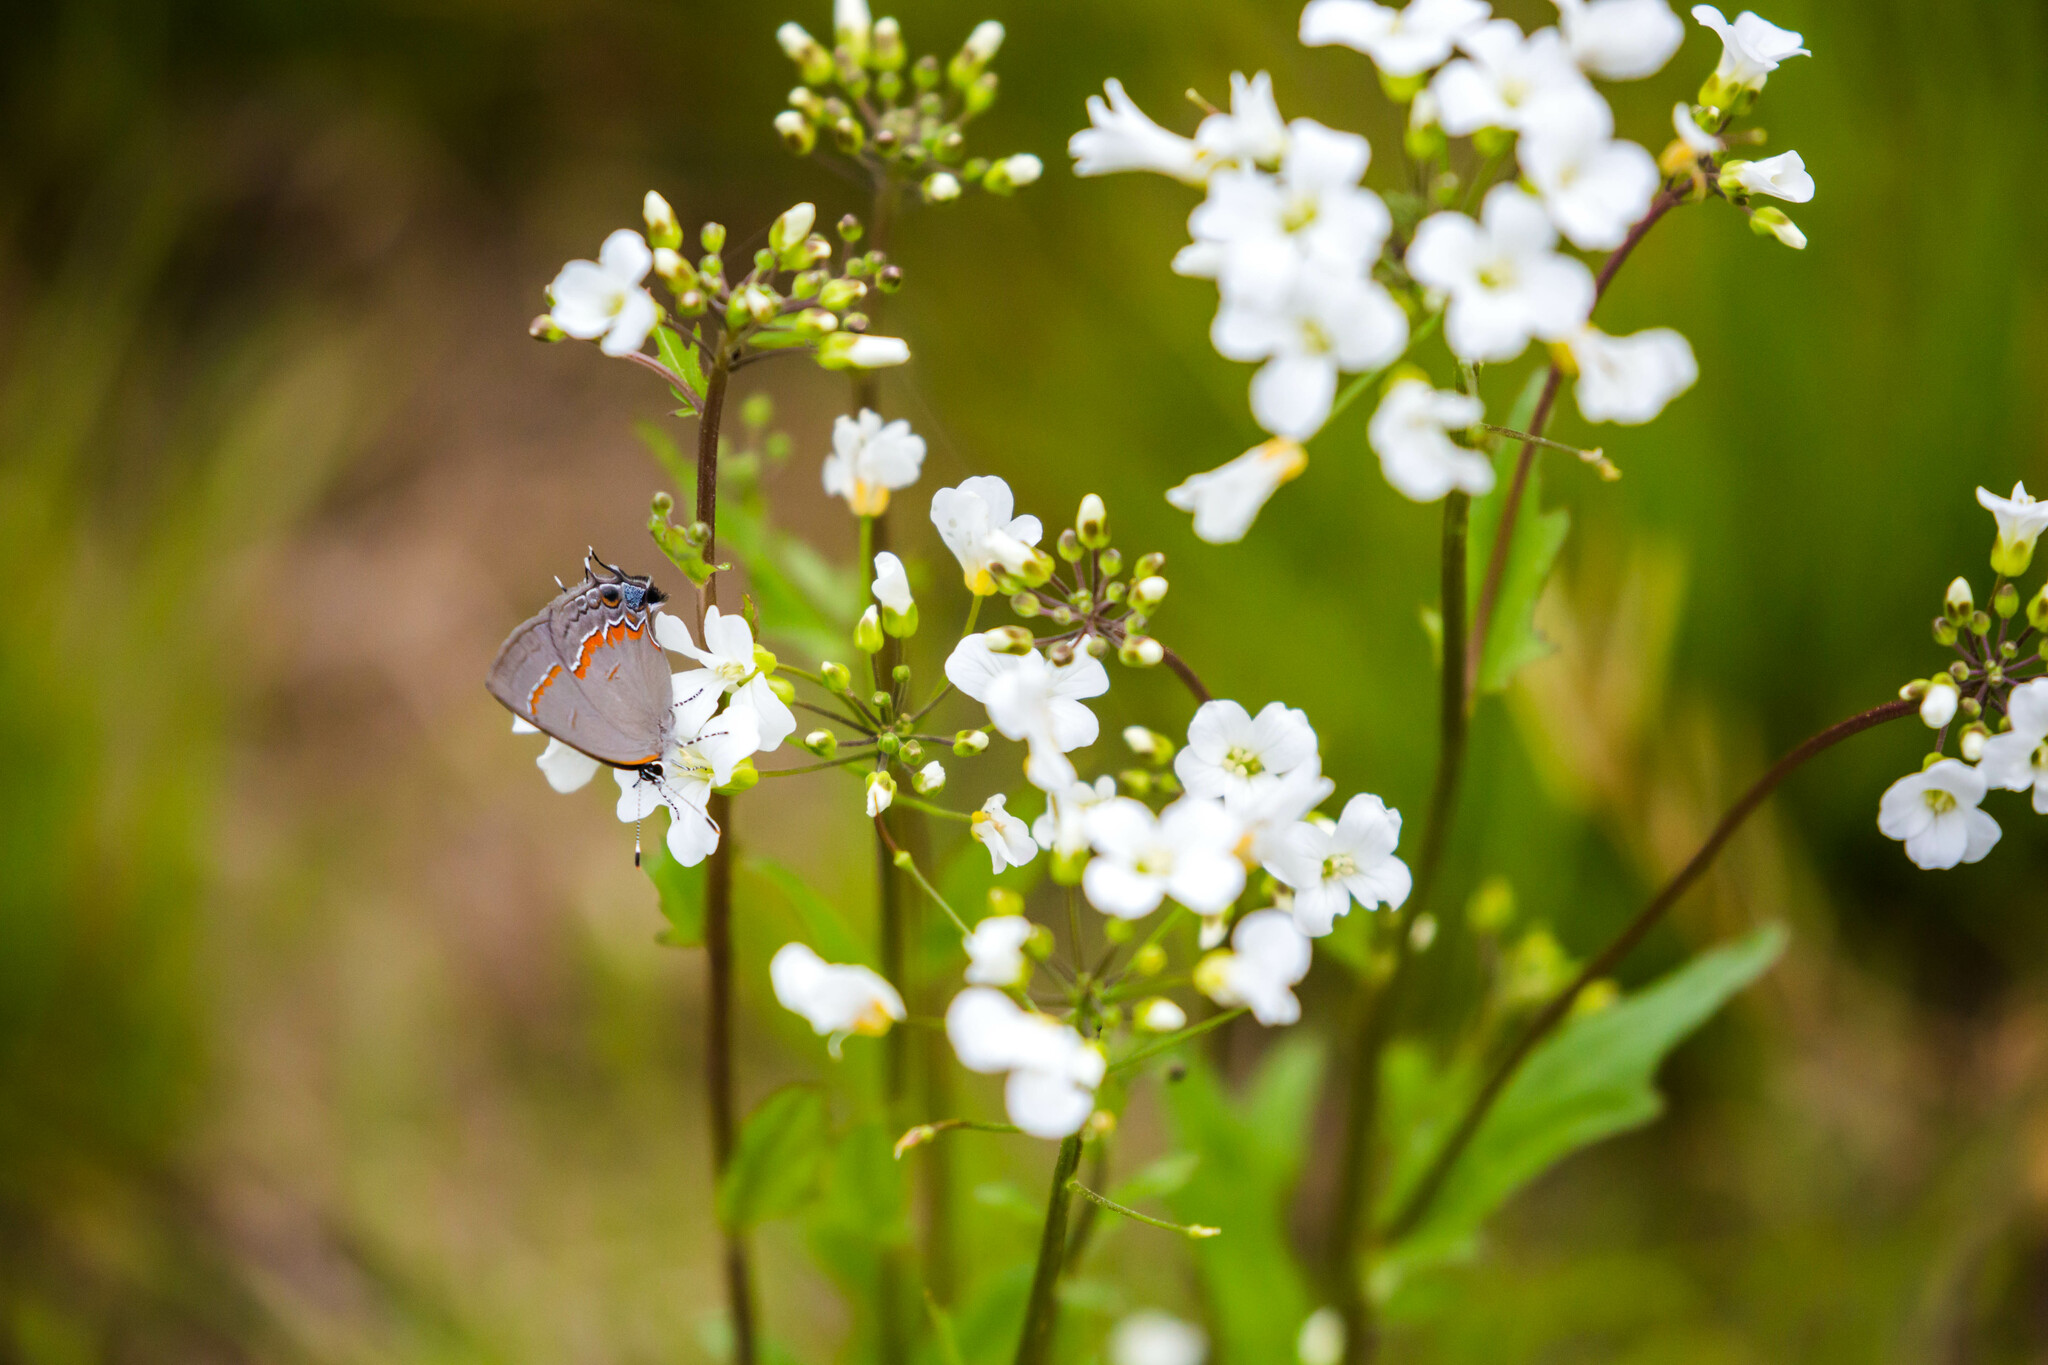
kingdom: Animalia
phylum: Arthropoda
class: Insecta
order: Lepidoptera
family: Lycaenidae
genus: Calycopis
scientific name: Calycopis cecrops
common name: Red-banded hairstreak
